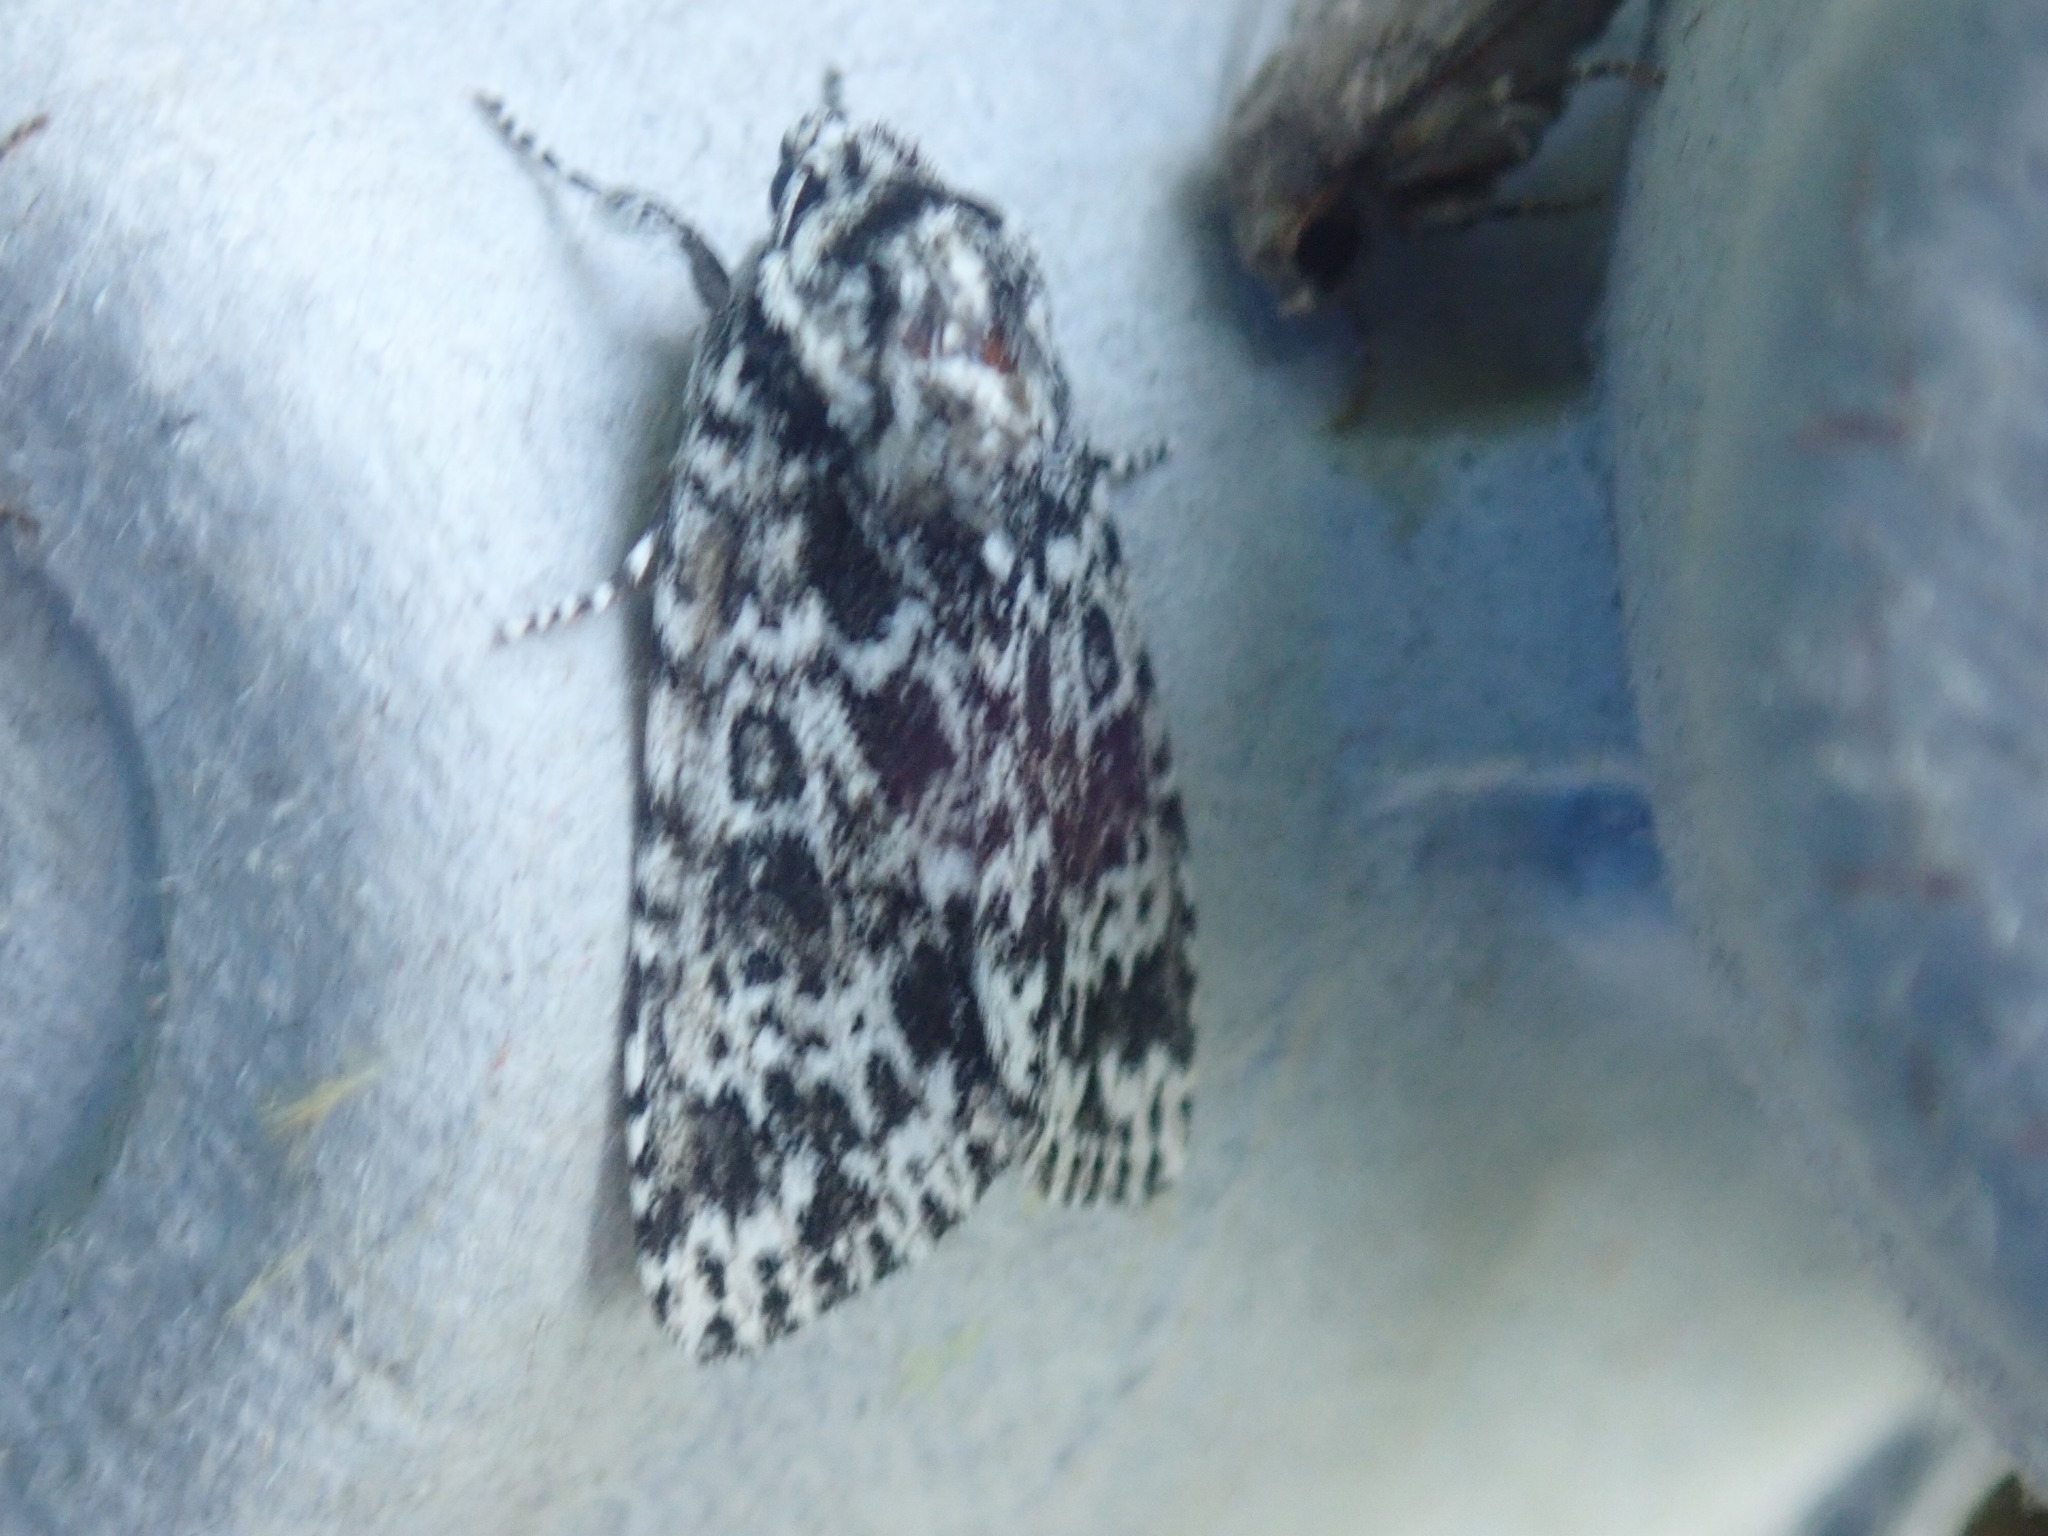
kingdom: Animalia
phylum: Arthropoda
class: Insecta
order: Lepidoptera
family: Noctuidae
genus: Acronicta
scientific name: Acronicta noctivaga
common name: Night-wandering dagger
